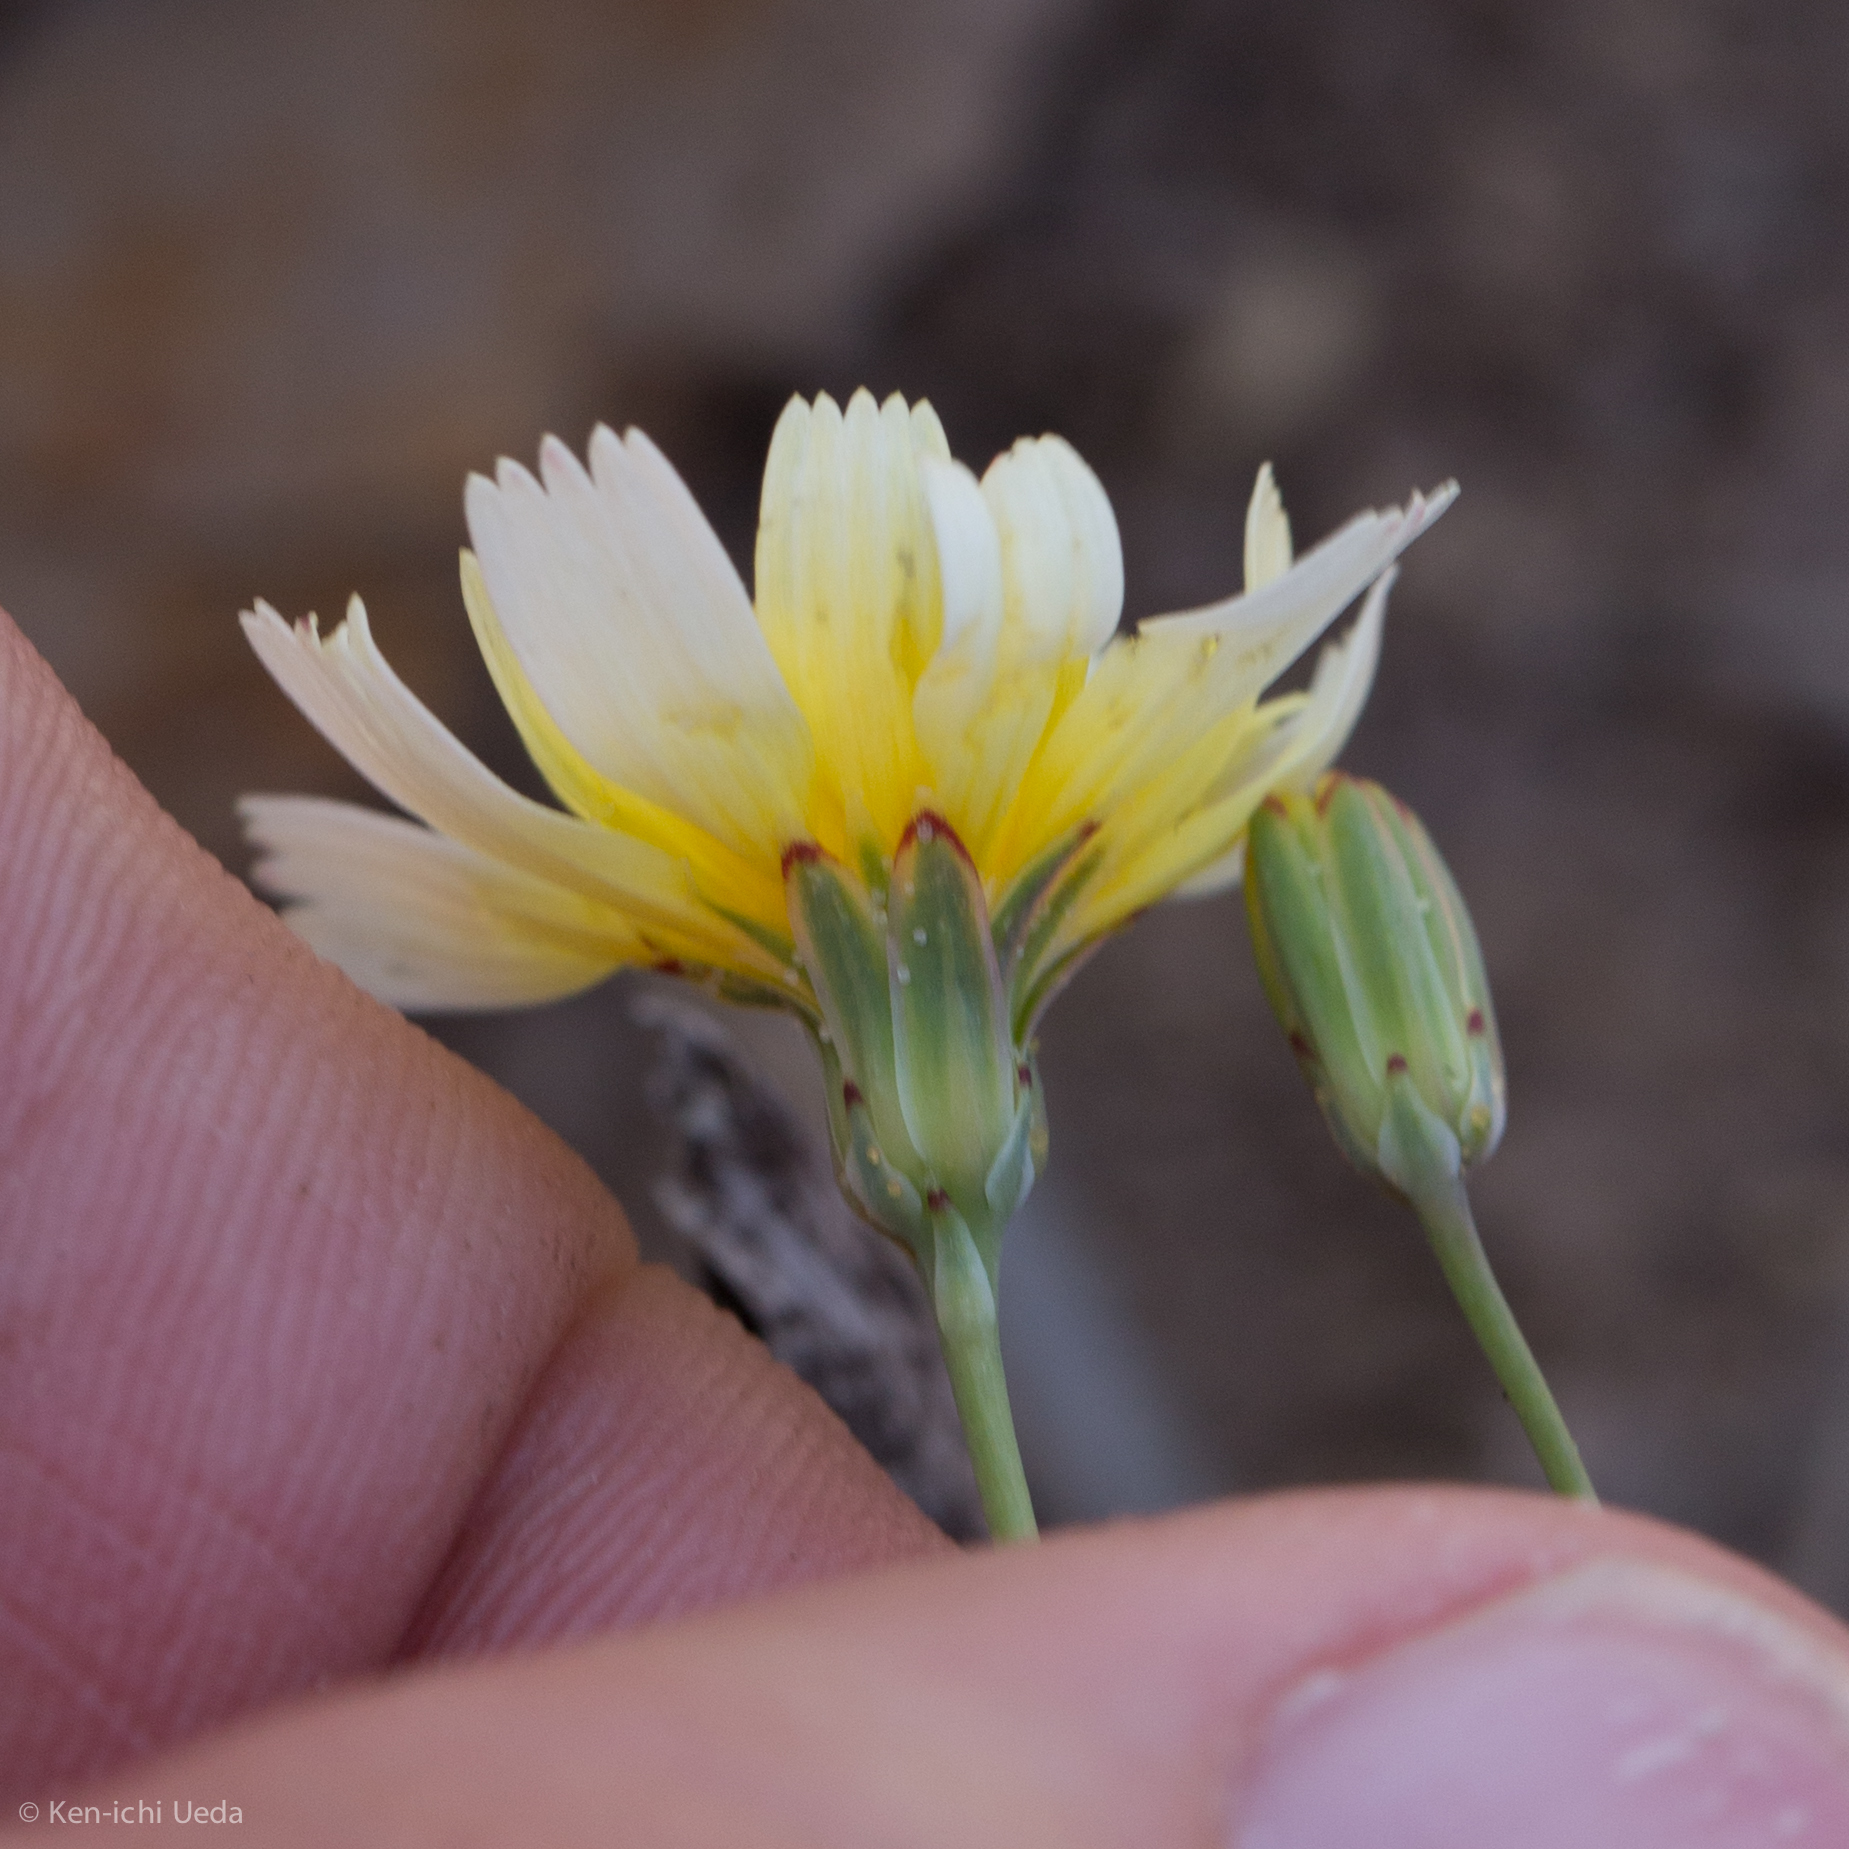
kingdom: Plantae
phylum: Tracheophyta
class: Magnoliopsida
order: Asterales
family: Asteraceae
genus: Malacothrix
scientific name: Malacothrix glabrata
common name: Smooth desert-dandelion
